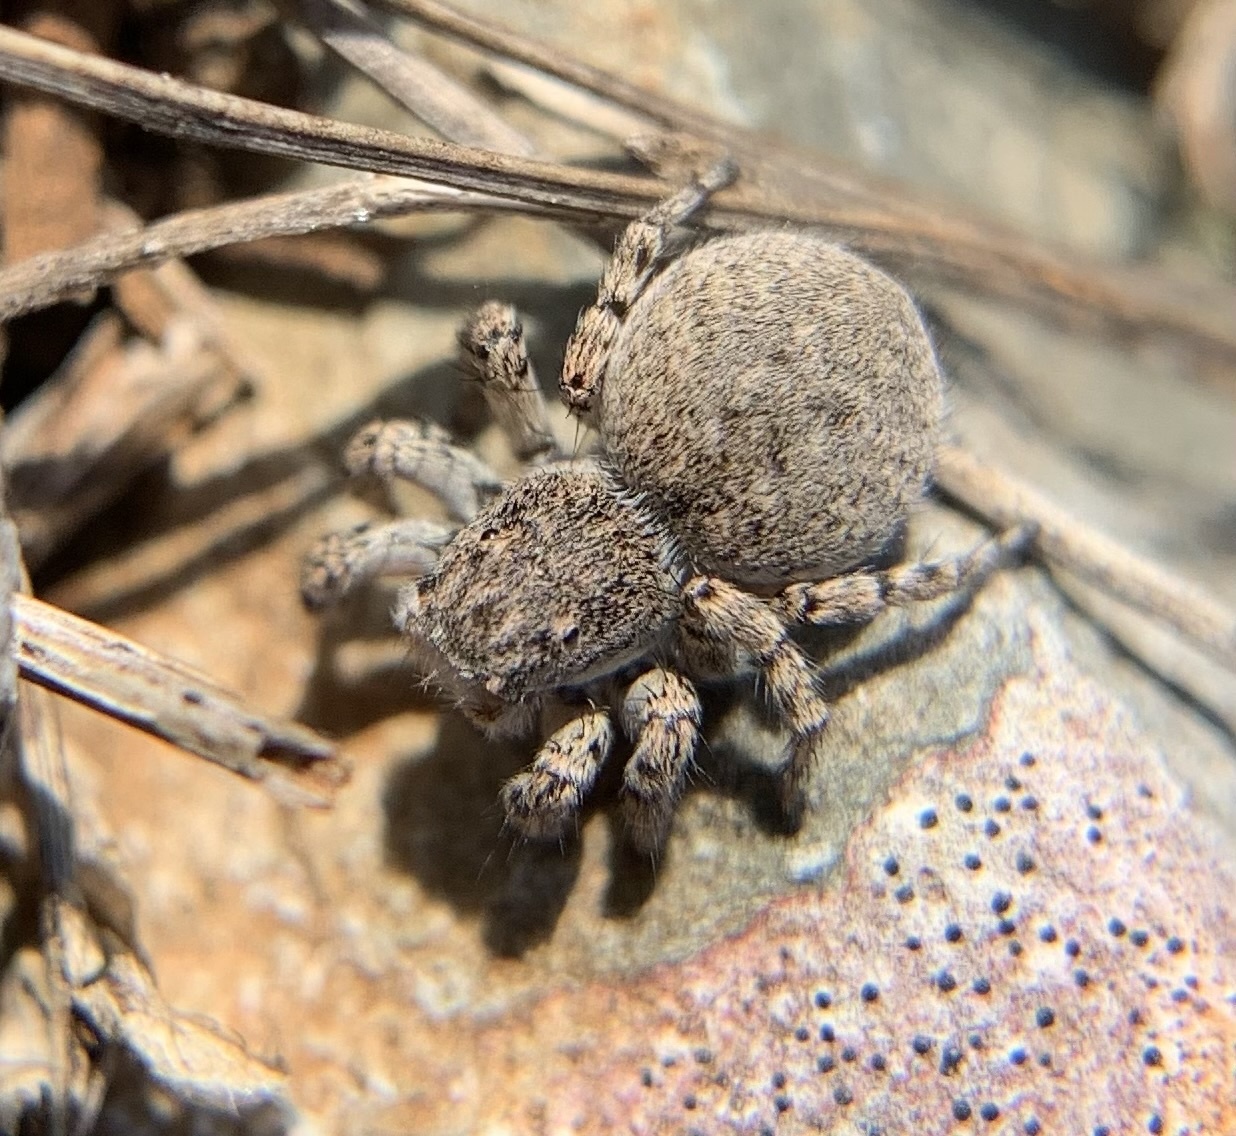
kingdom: Animalia
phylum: Arthropoda
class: Arachnida
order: Araneae
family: Salticidae
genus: Aelurillus
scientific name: Aelurillus v-insignitus
